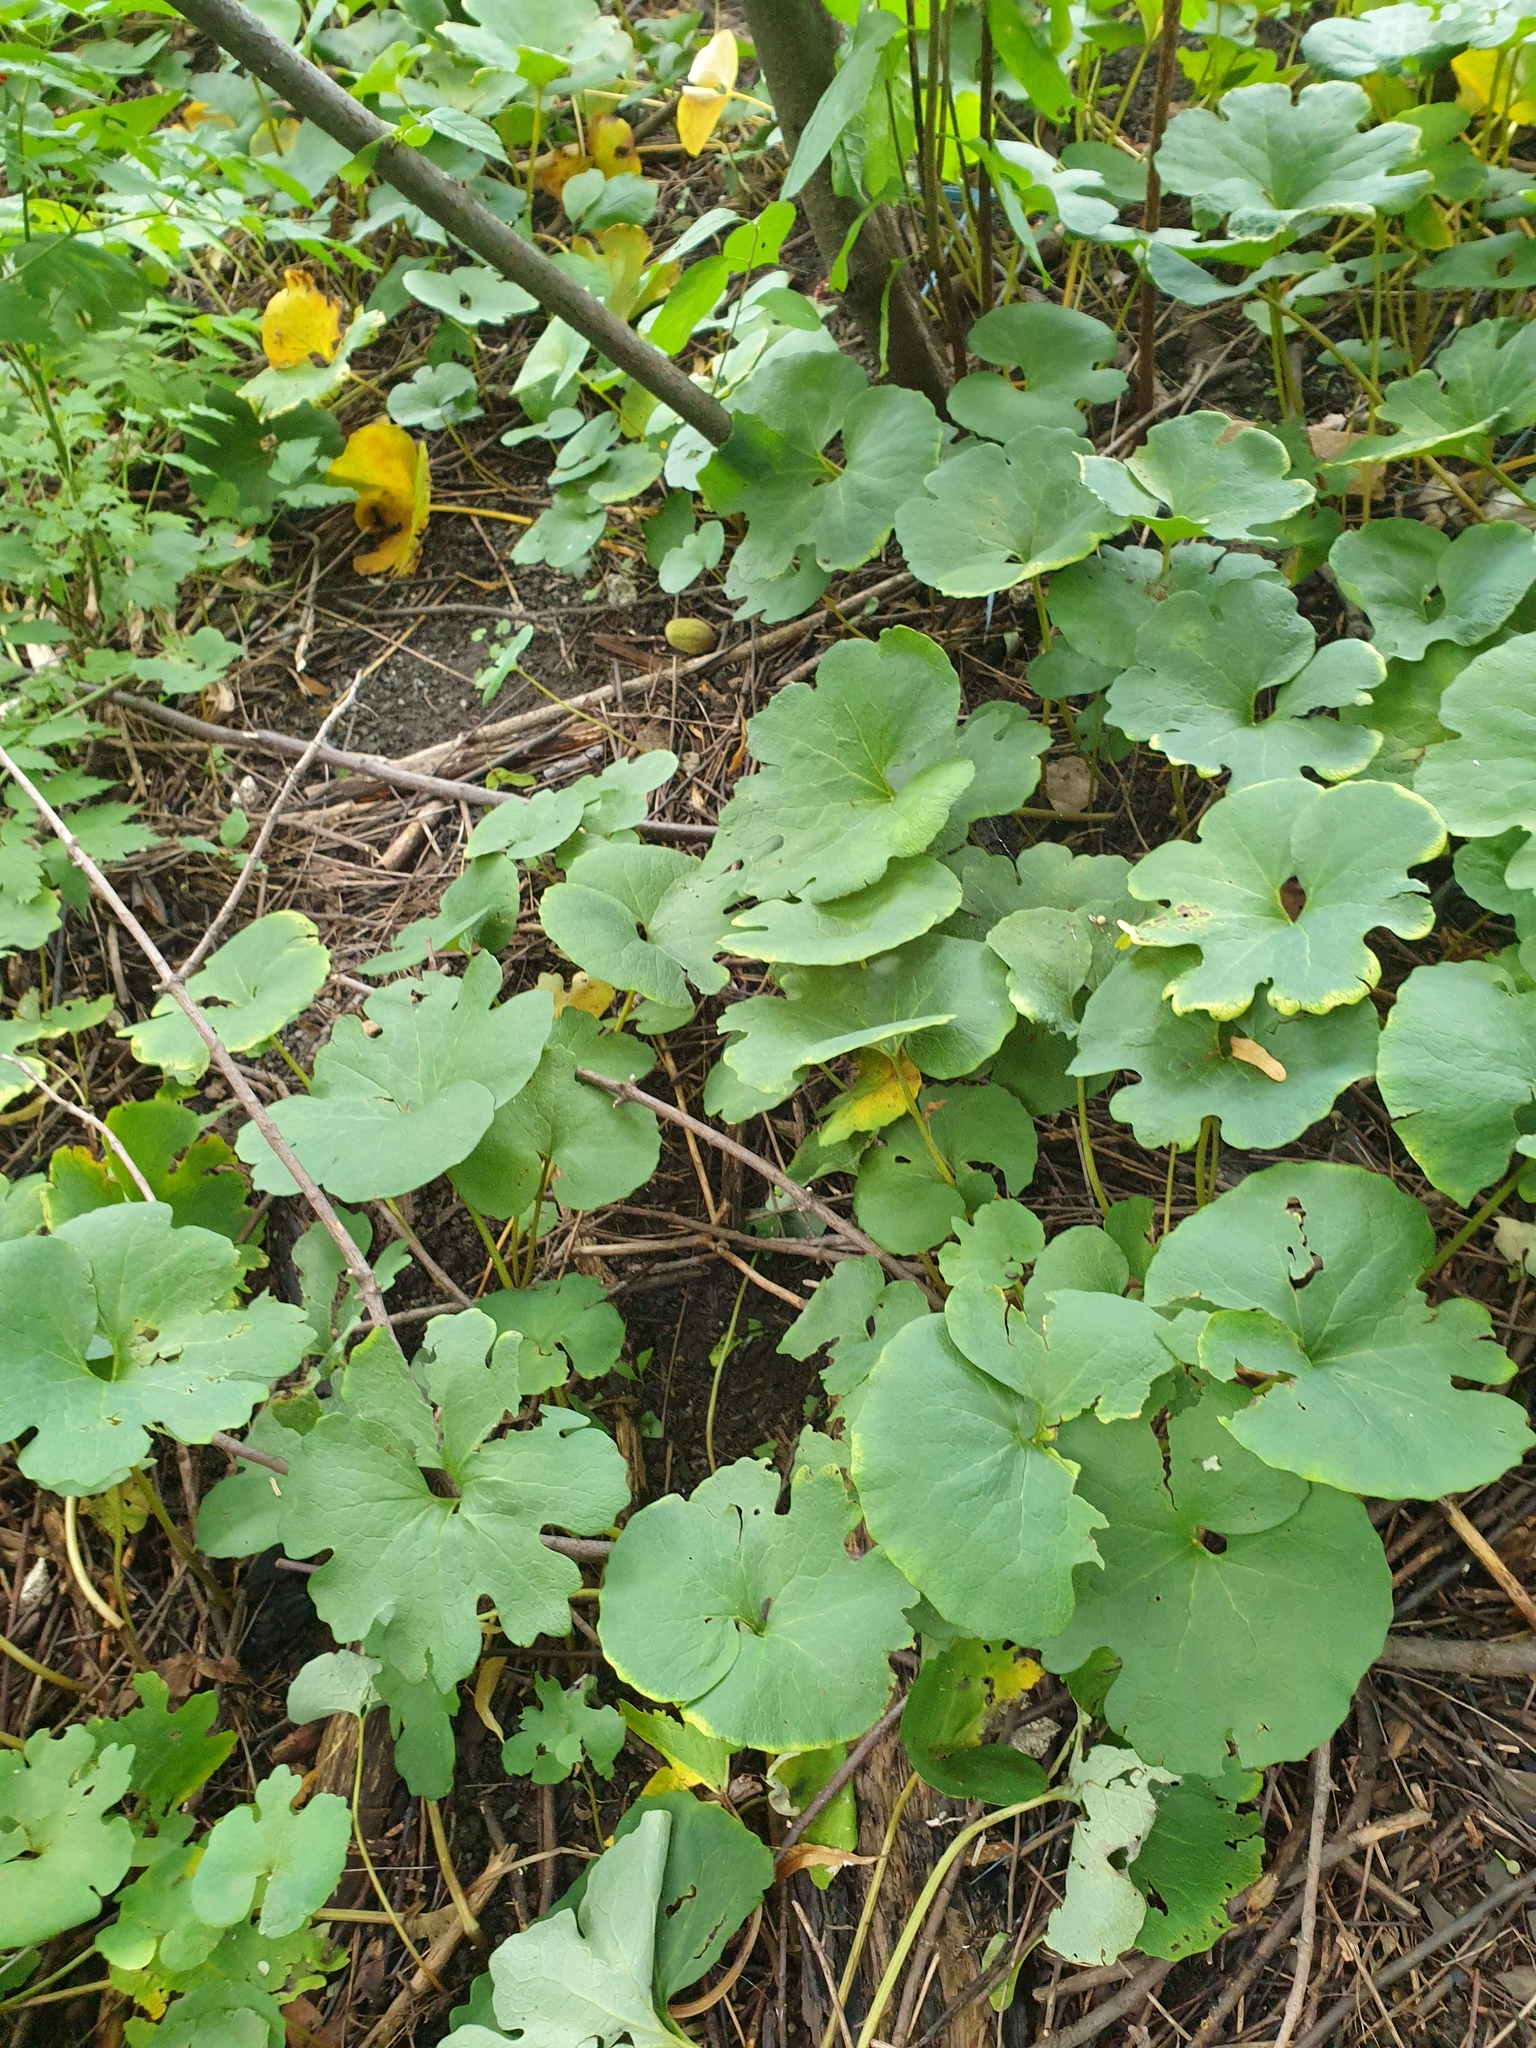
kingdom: Plantae
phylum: Tracheophyta
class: Magnoliopsida
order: Ranunculales
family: Papaveraceae
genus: Sanguinaria
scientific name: Sanguinaria canadensis
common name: Bloodroot
